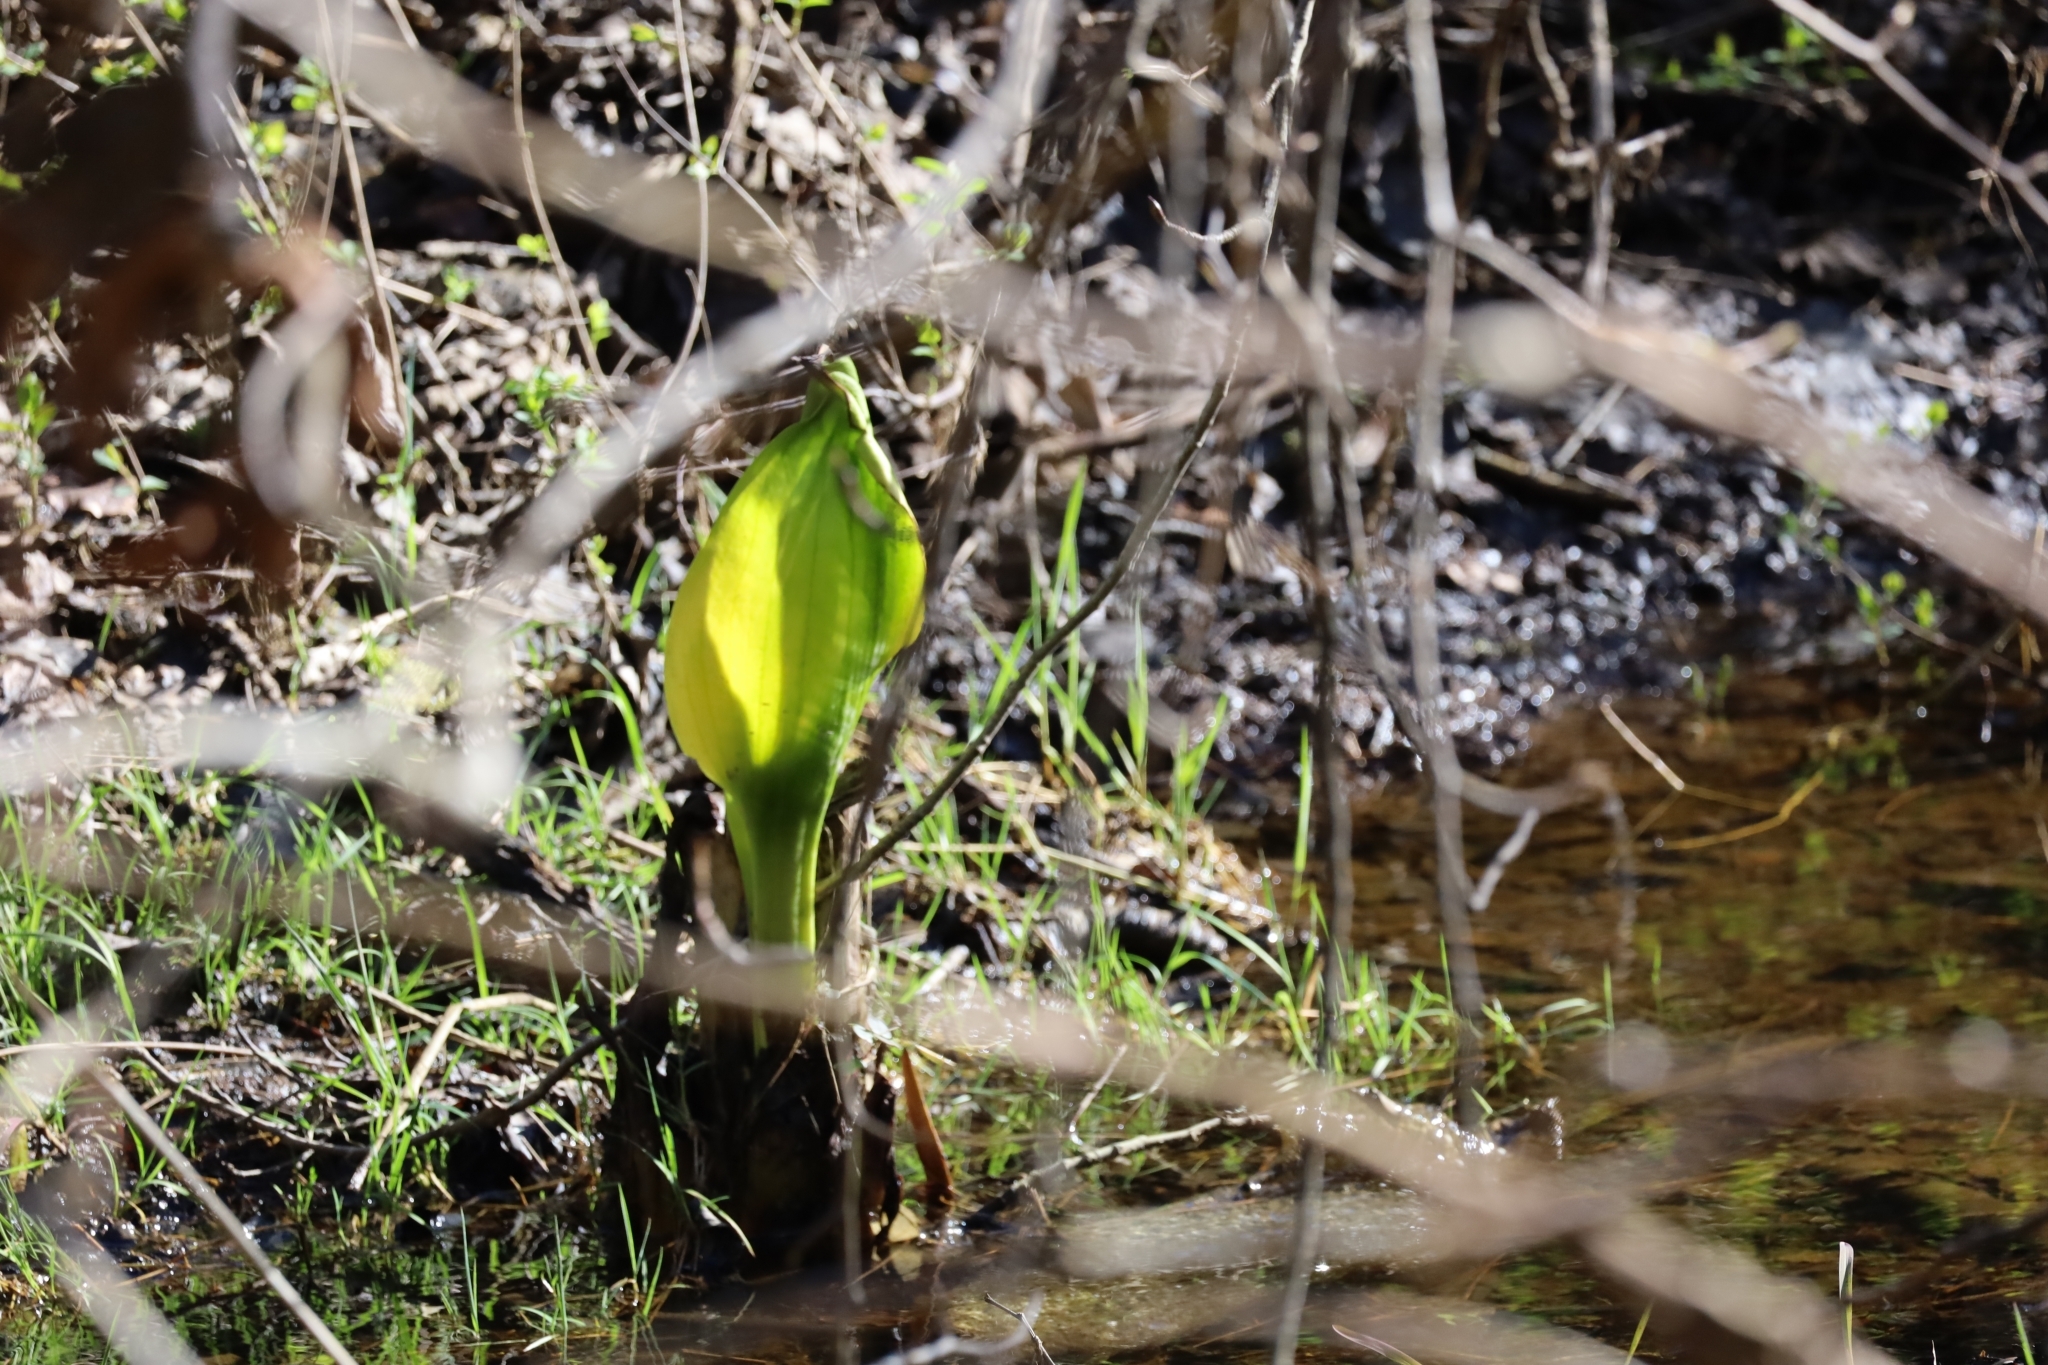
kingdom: Plantae
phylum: Tracheophyta
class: Liliopsida
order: Alismatales
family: Araceae
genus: Lysichiton
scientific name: Lysichiton americanus
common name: American skunk cabbage
